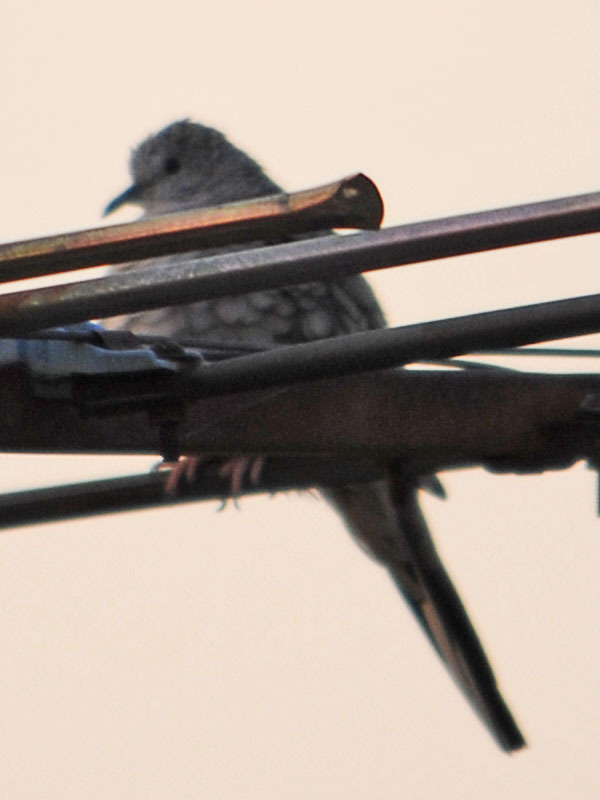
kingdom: Animalia
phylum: Chordata
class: Aves
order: Columbiformes
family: Columbidae
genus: Columbina
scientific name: Columbina inca
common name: Inca dove
